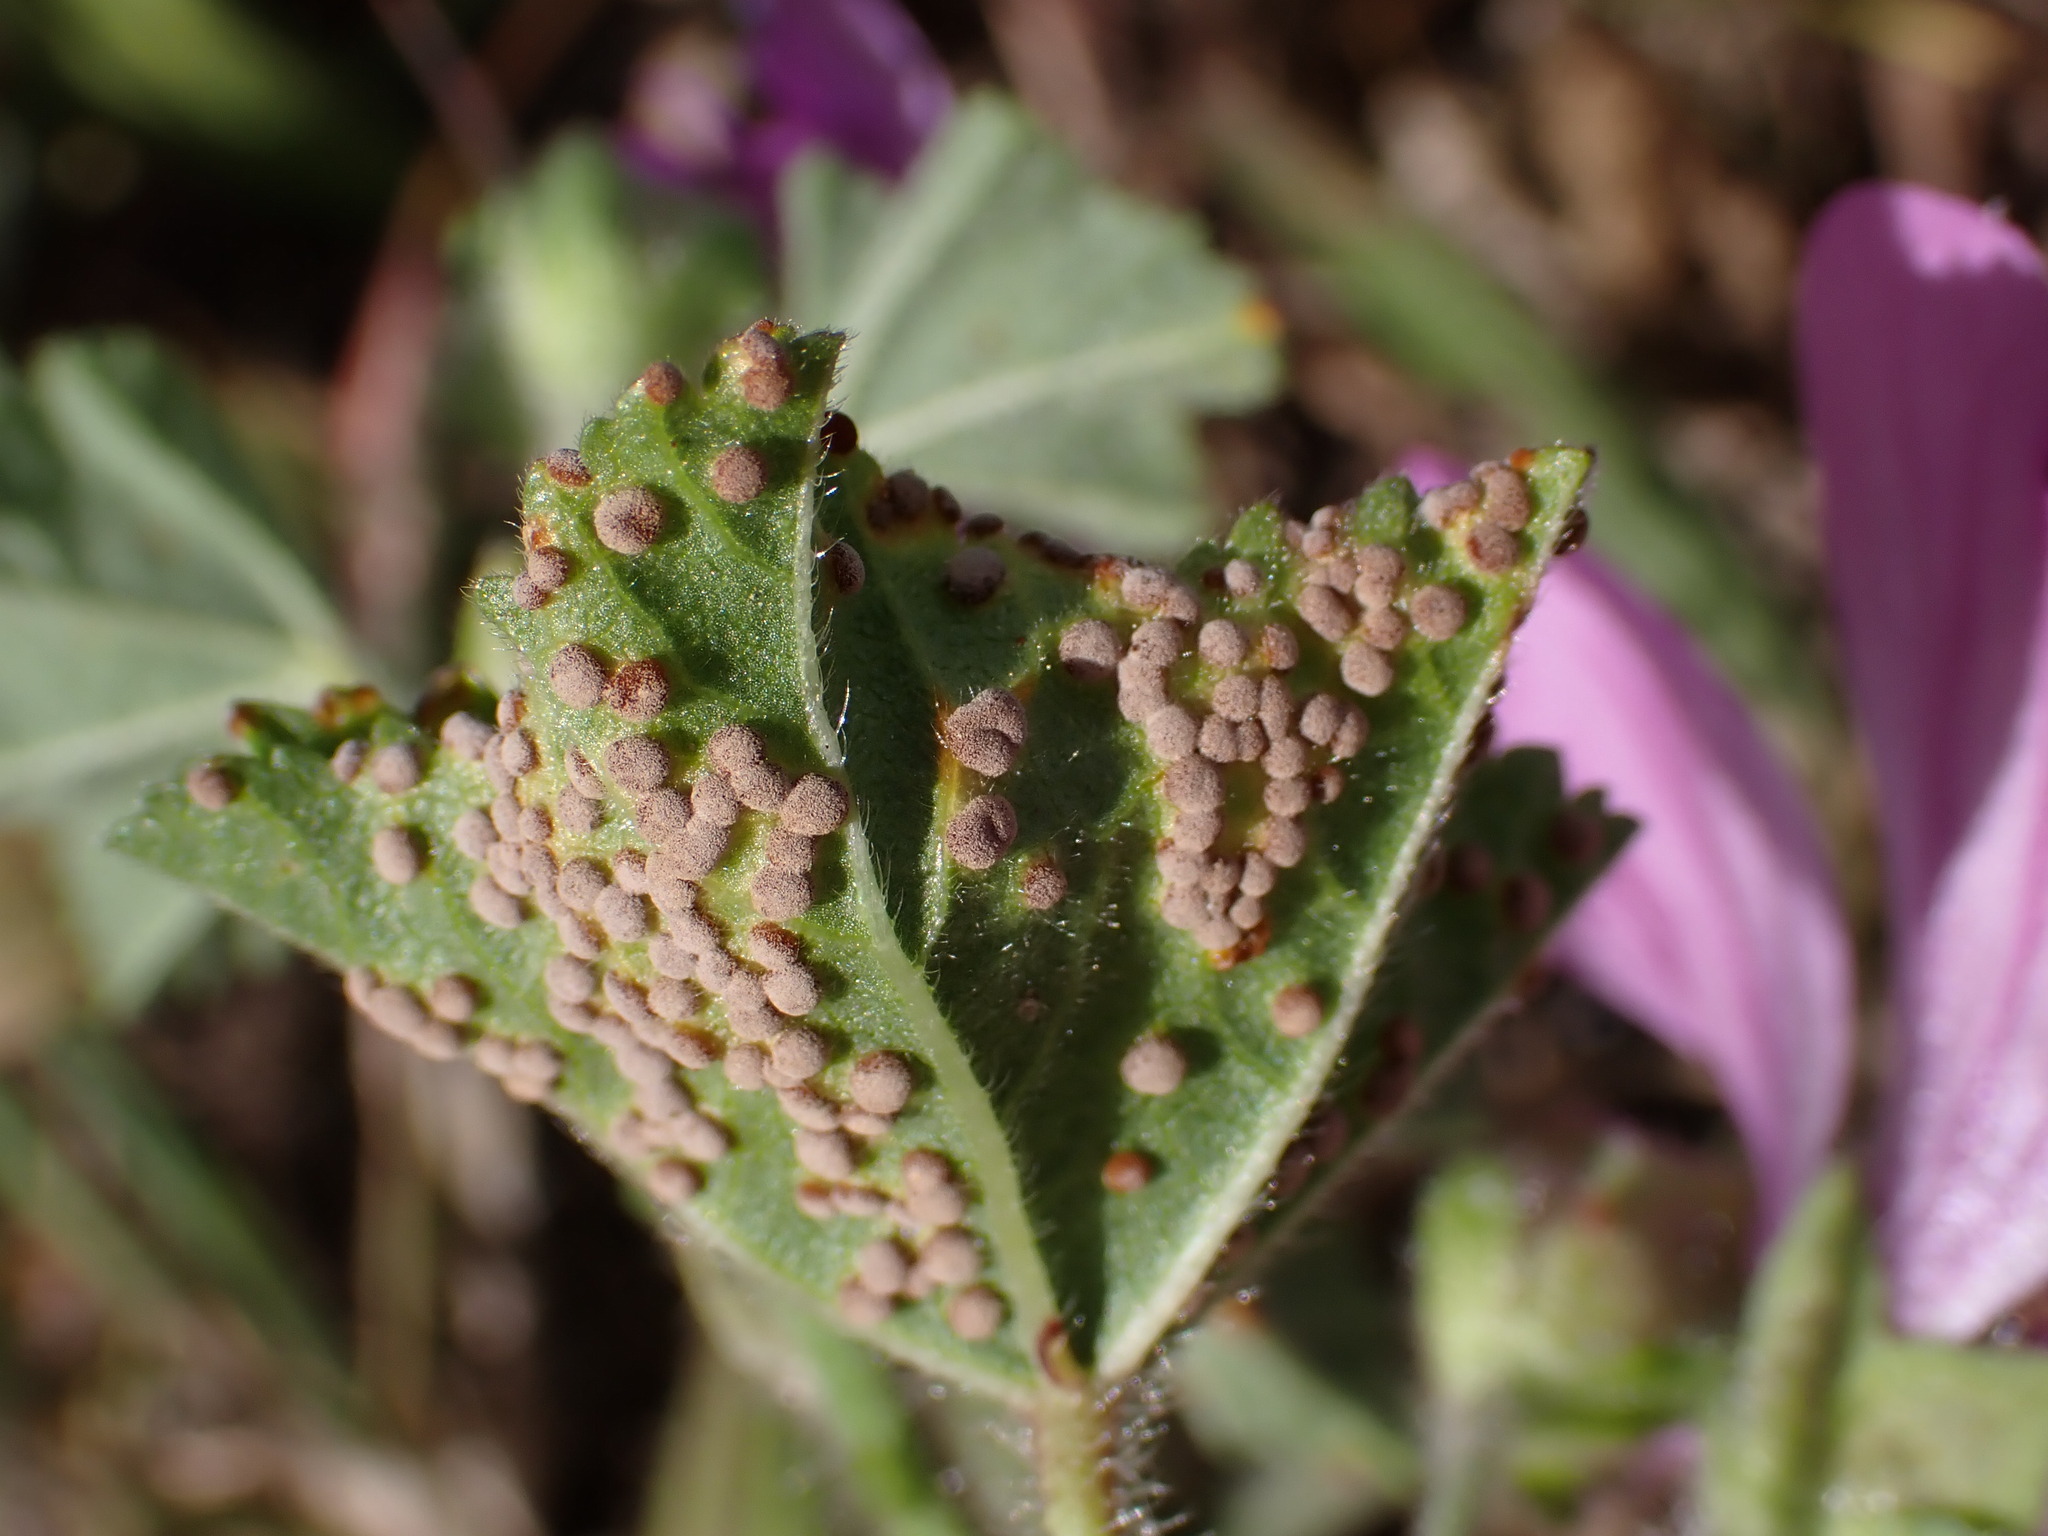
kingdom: Fungi
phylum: Basidiomycota
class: Pucciniomycetes
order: Pucciniales
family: Pucciniaceae
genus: Puccinia
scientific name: Puccinia malvacearum
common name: Hollyhock rust
